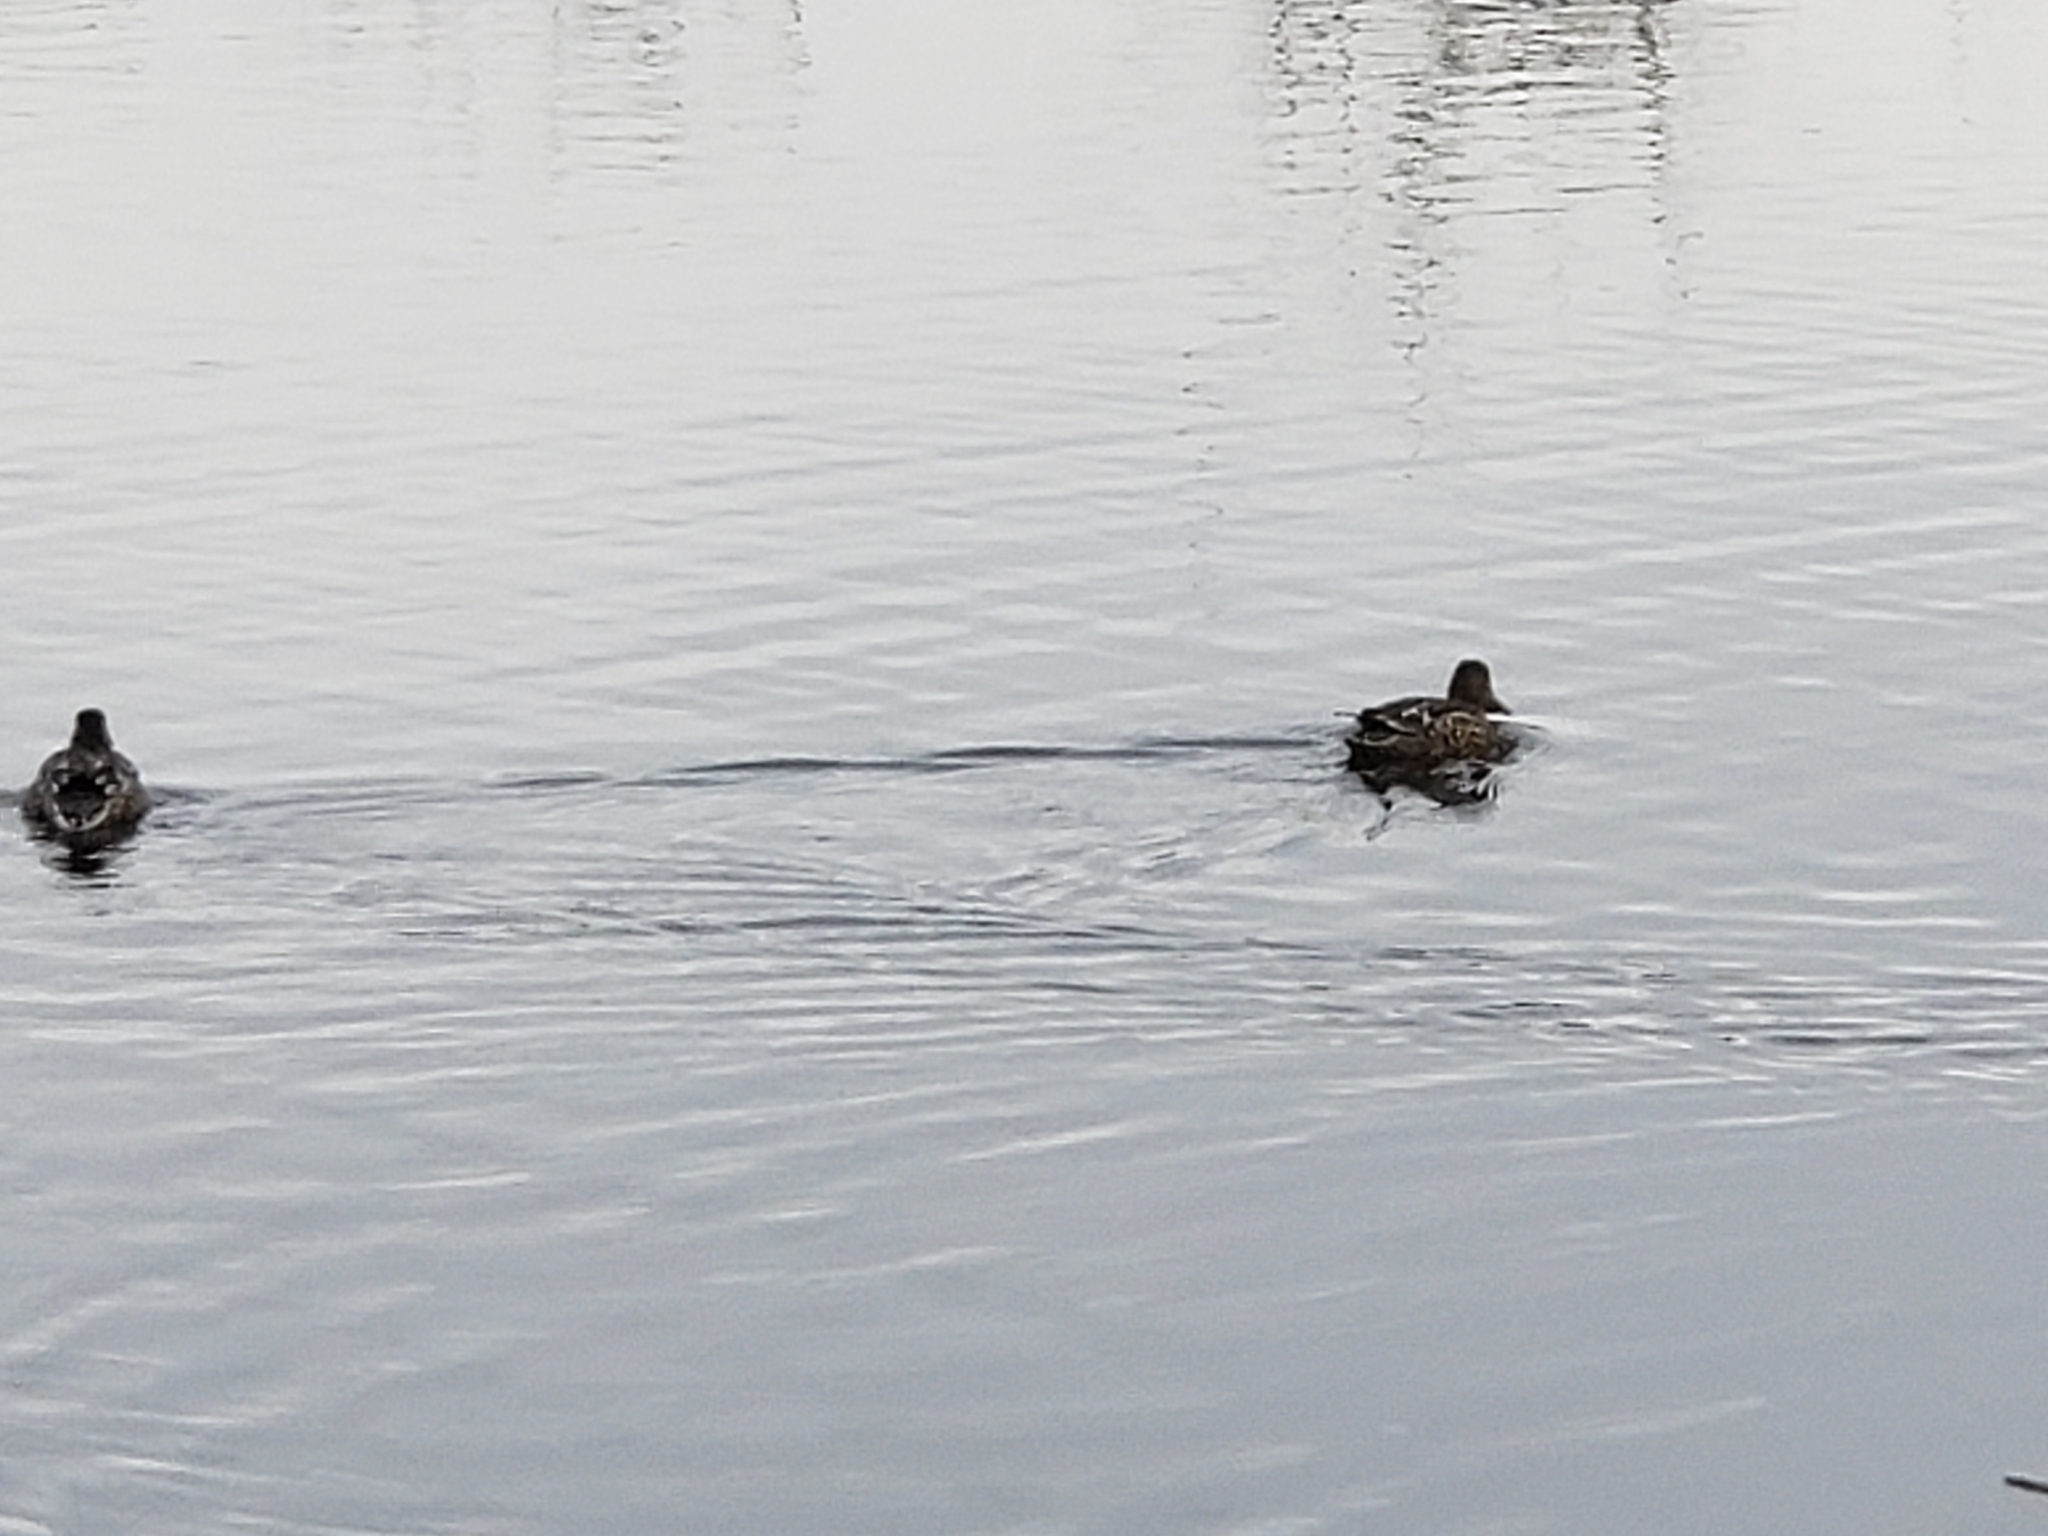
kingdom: Animalia
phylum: Chordata
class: Aves
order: Anseriformes
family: Anatidae
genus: Spatula
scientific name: Spatula clypeata
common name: Northern shoveler
